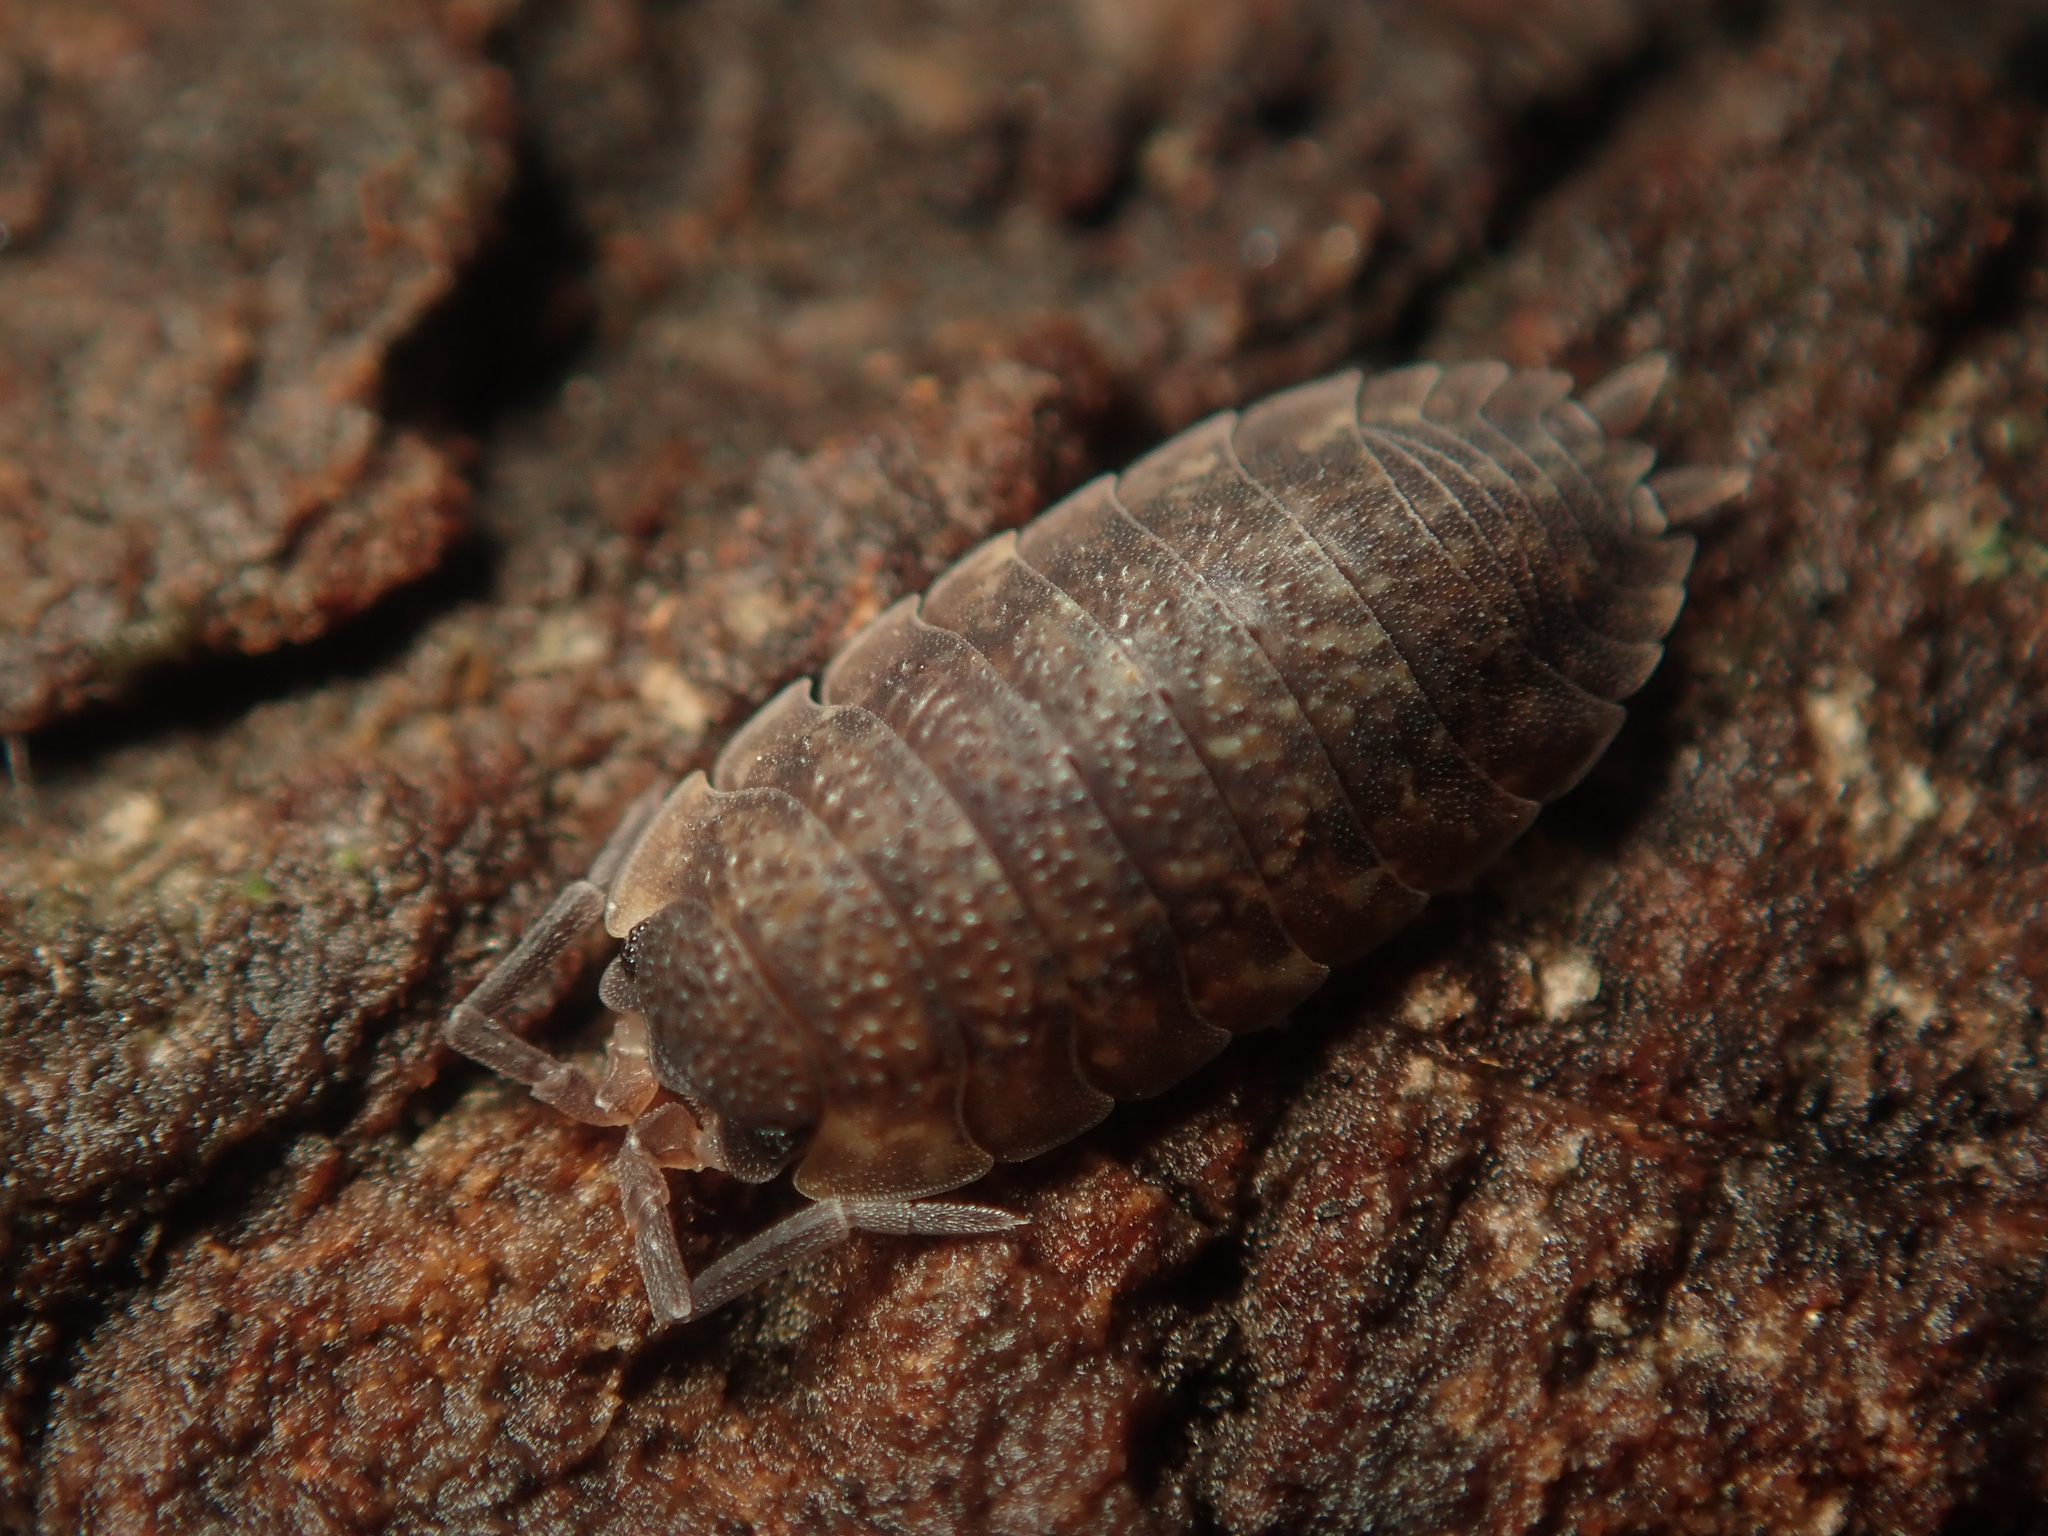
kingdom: Animalia
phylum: Arthropoda
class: Malacostraca
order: Isopoda
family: Porcellionidae
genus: Porcellio
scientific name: Porcellio scaber
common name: Common rough woodlouse
